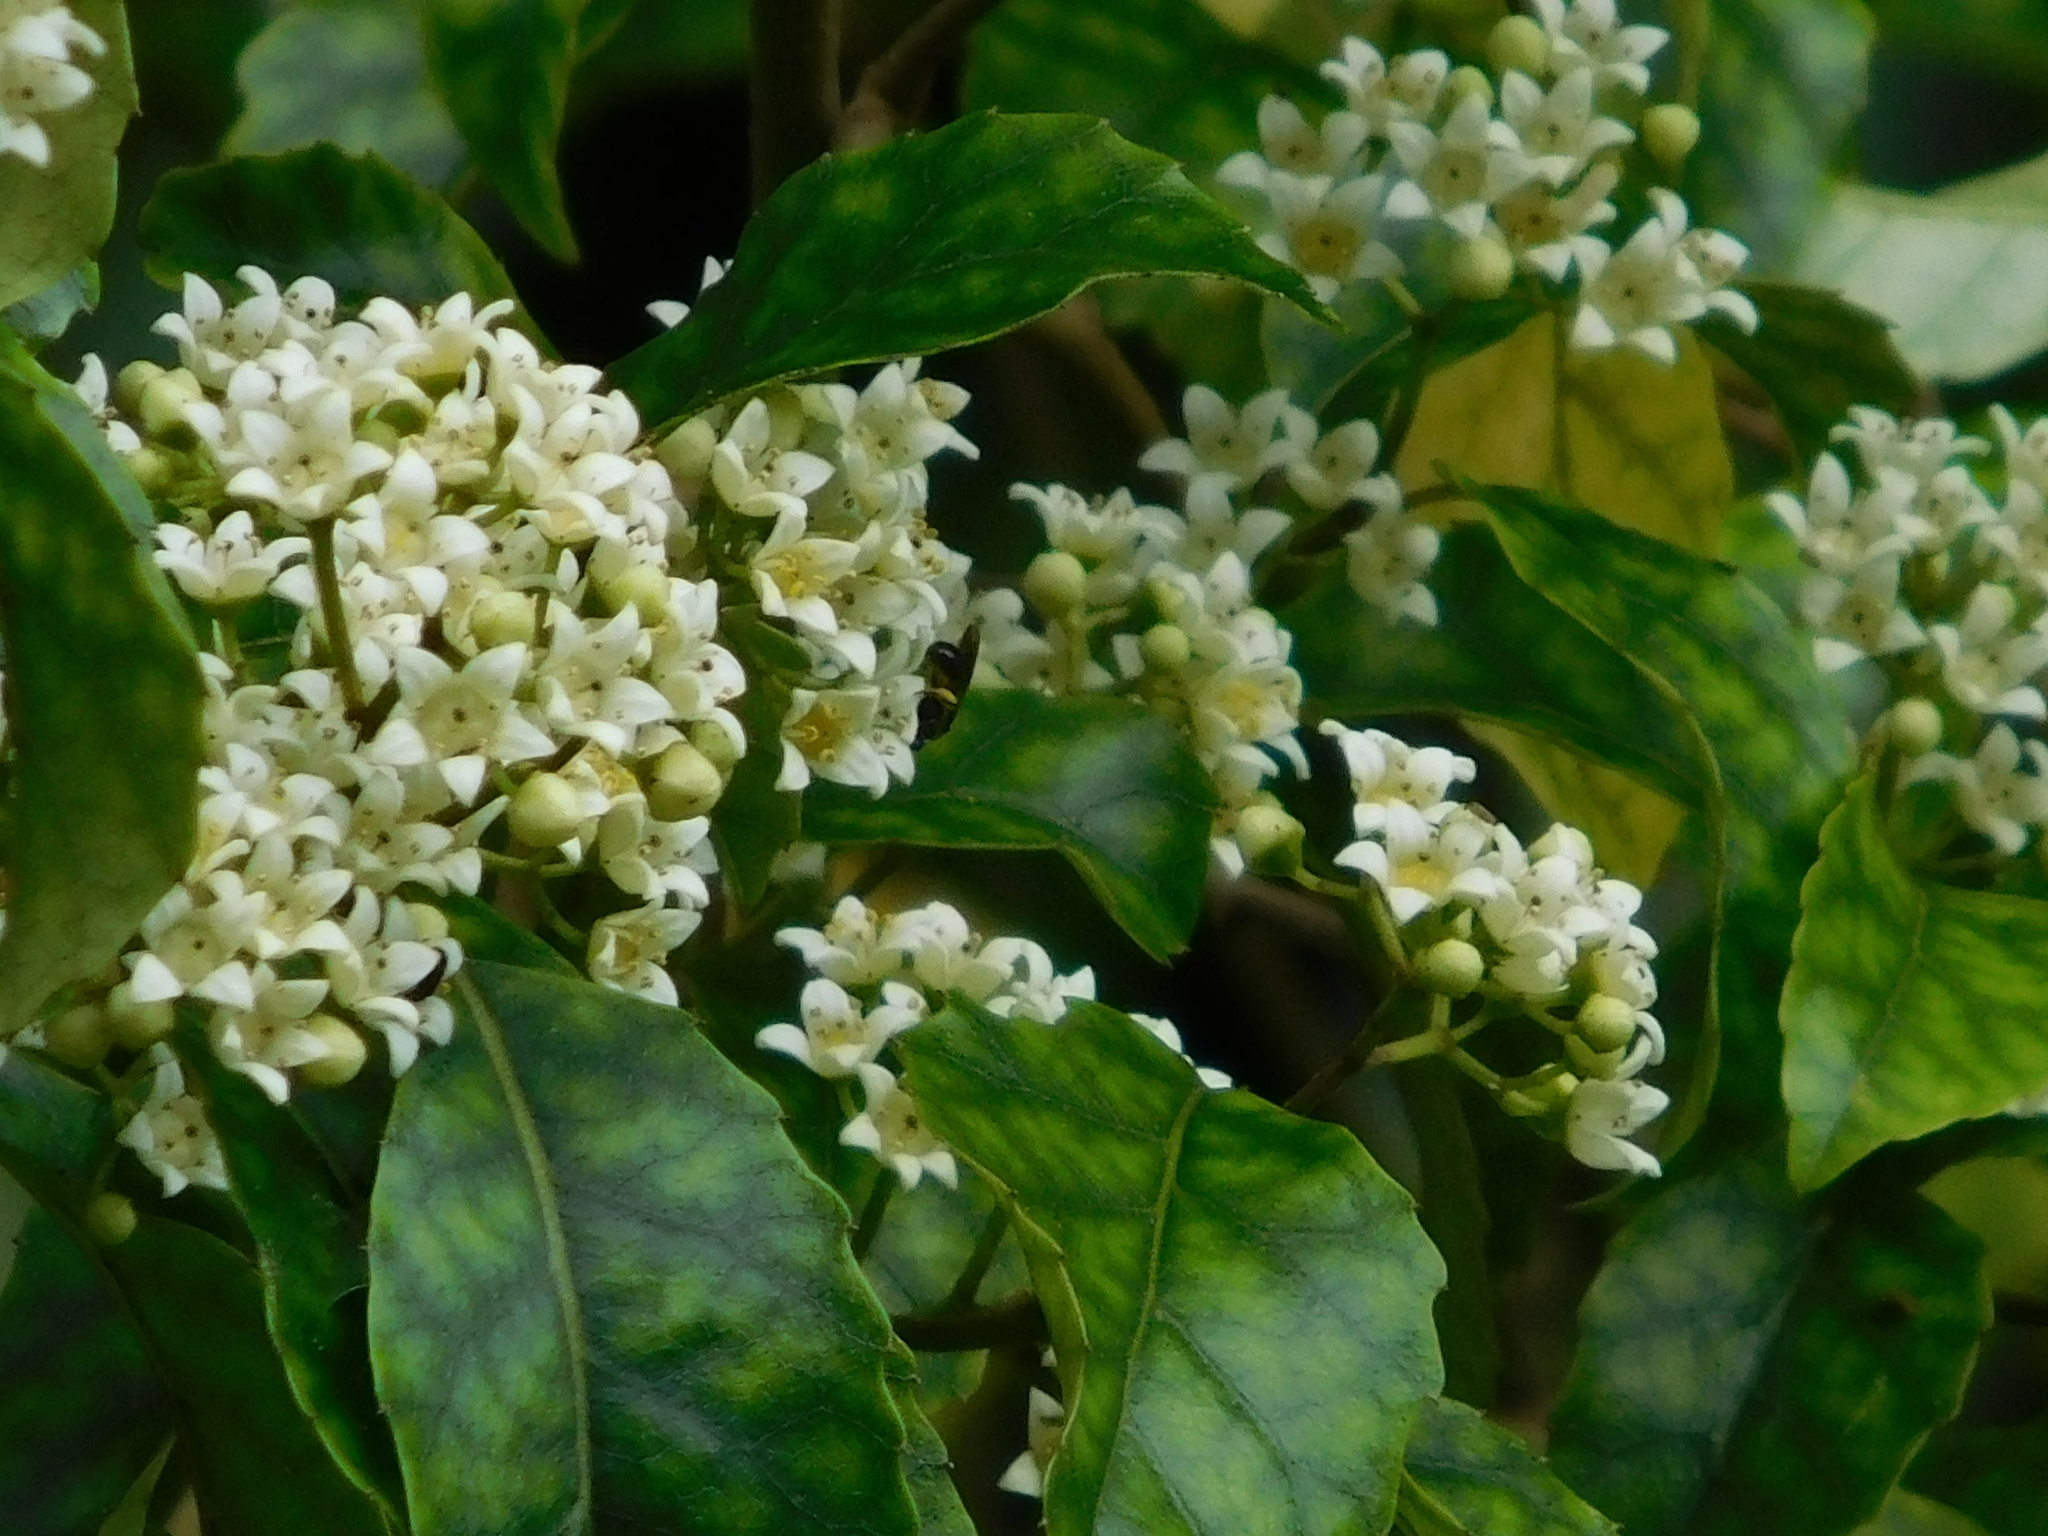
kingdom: Plantae
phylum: Tracheophyta
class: Magnoliopsida
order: Asterales
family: Rousseaceae
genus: Carpodetus
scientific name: Carpodetus serratus
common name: White mapau
